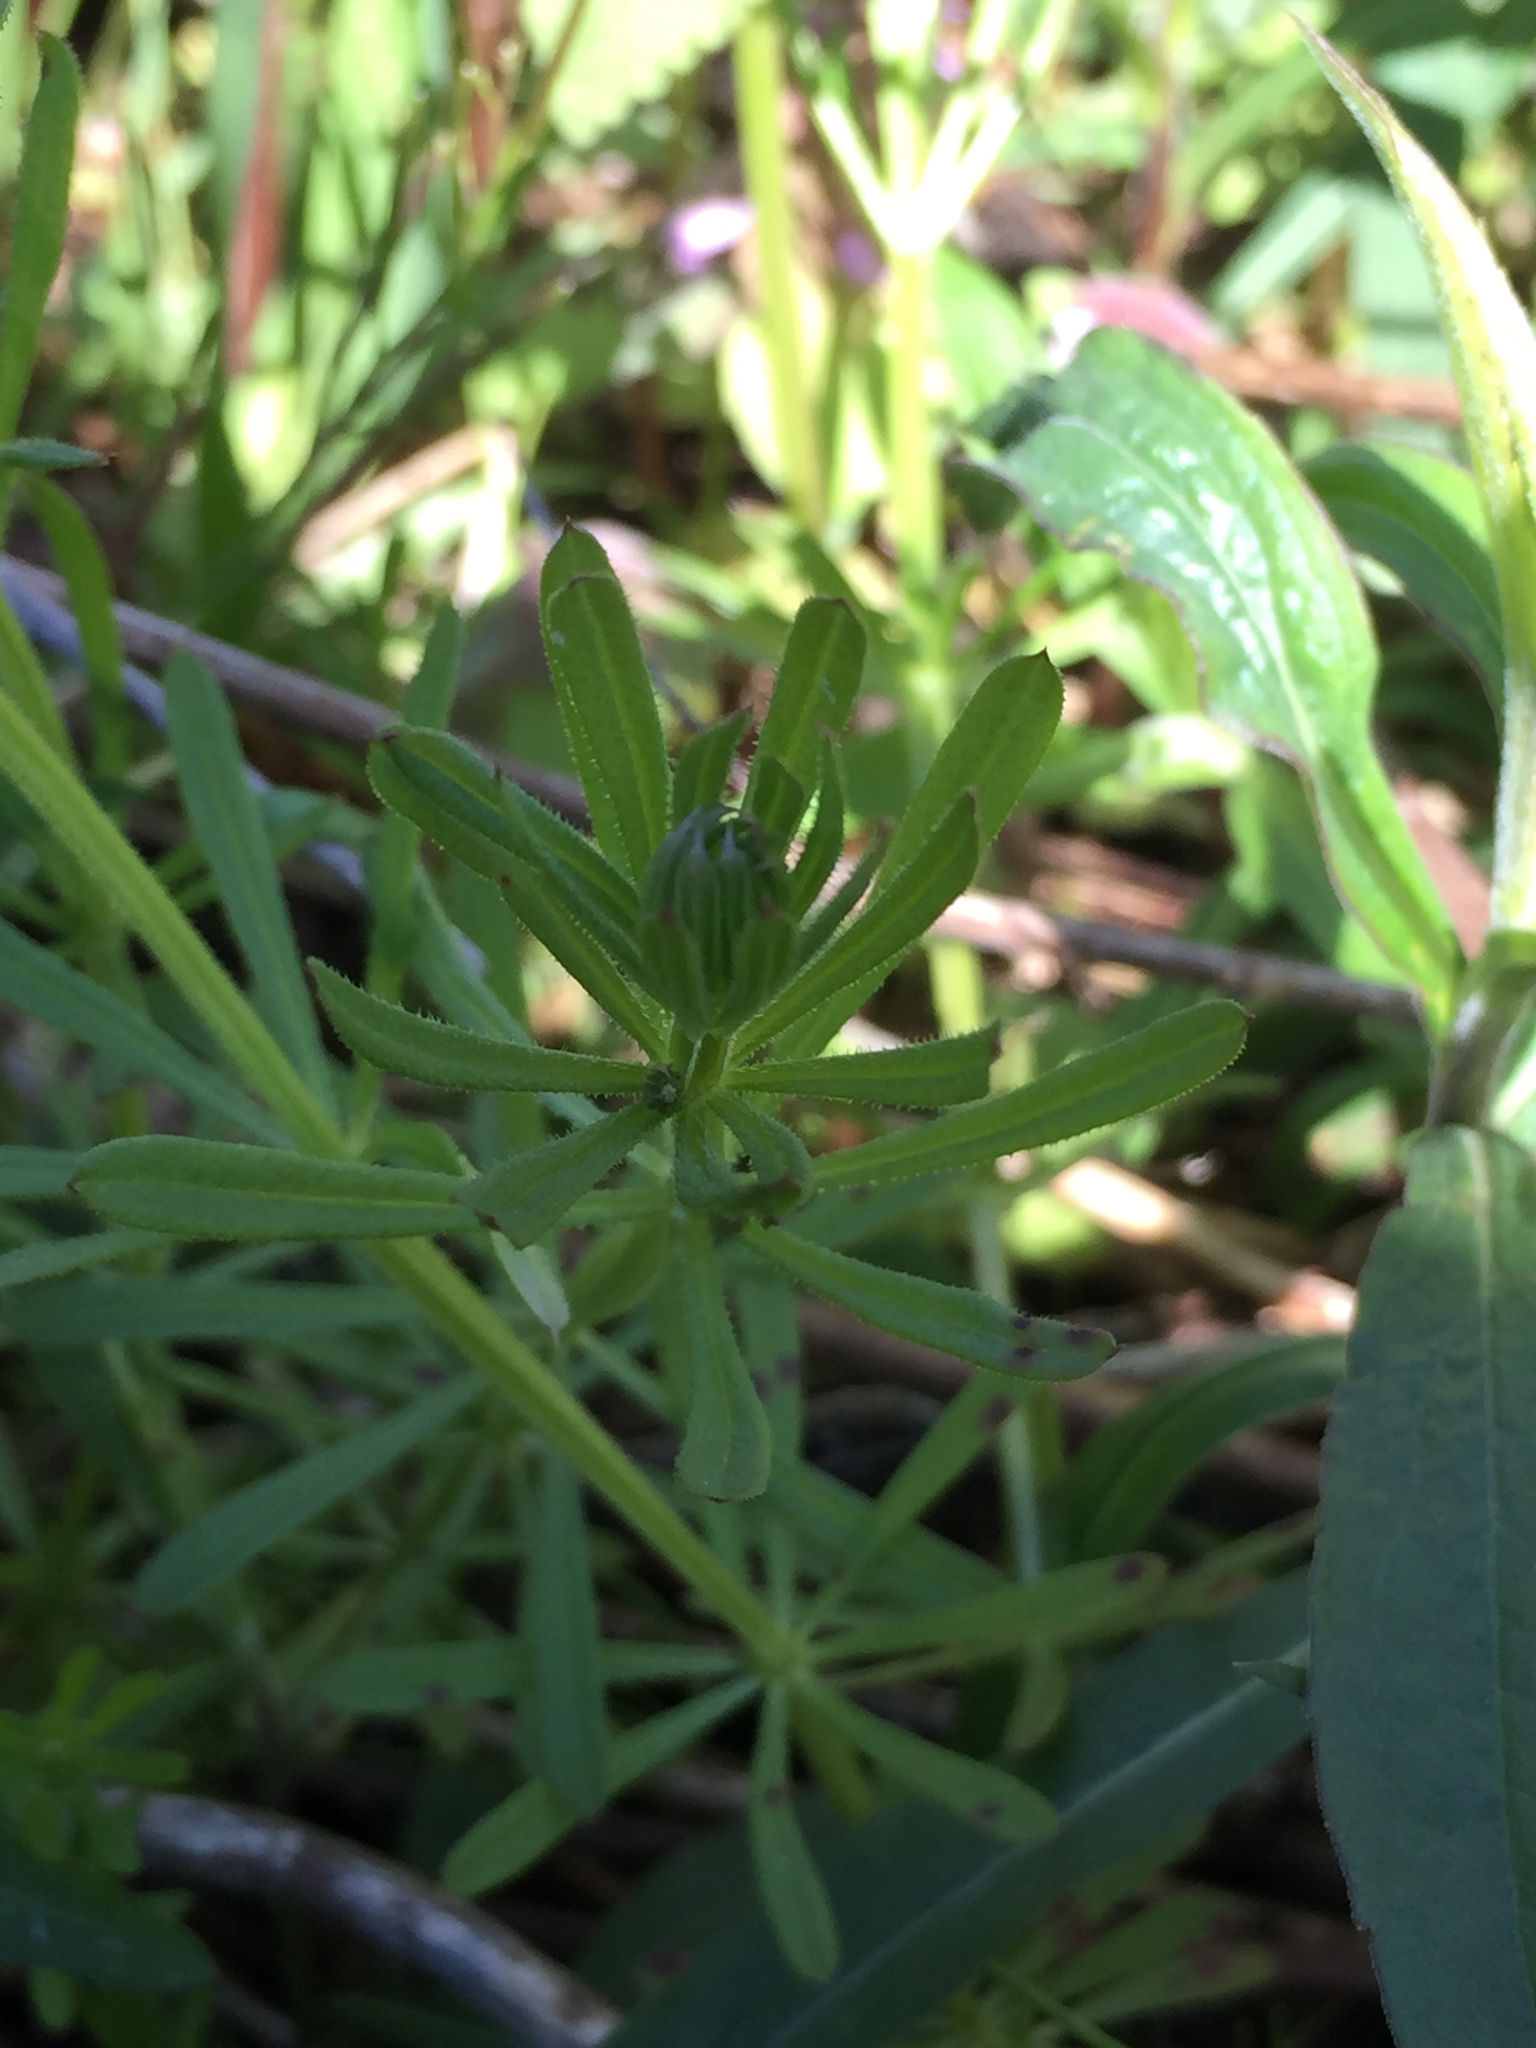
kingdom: Plantae
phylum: Tracheophyta
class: Magnoliopsida
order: Gentianales
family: Rubiaceae
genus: Galium
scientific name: Galium aparine
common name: Cleavers
